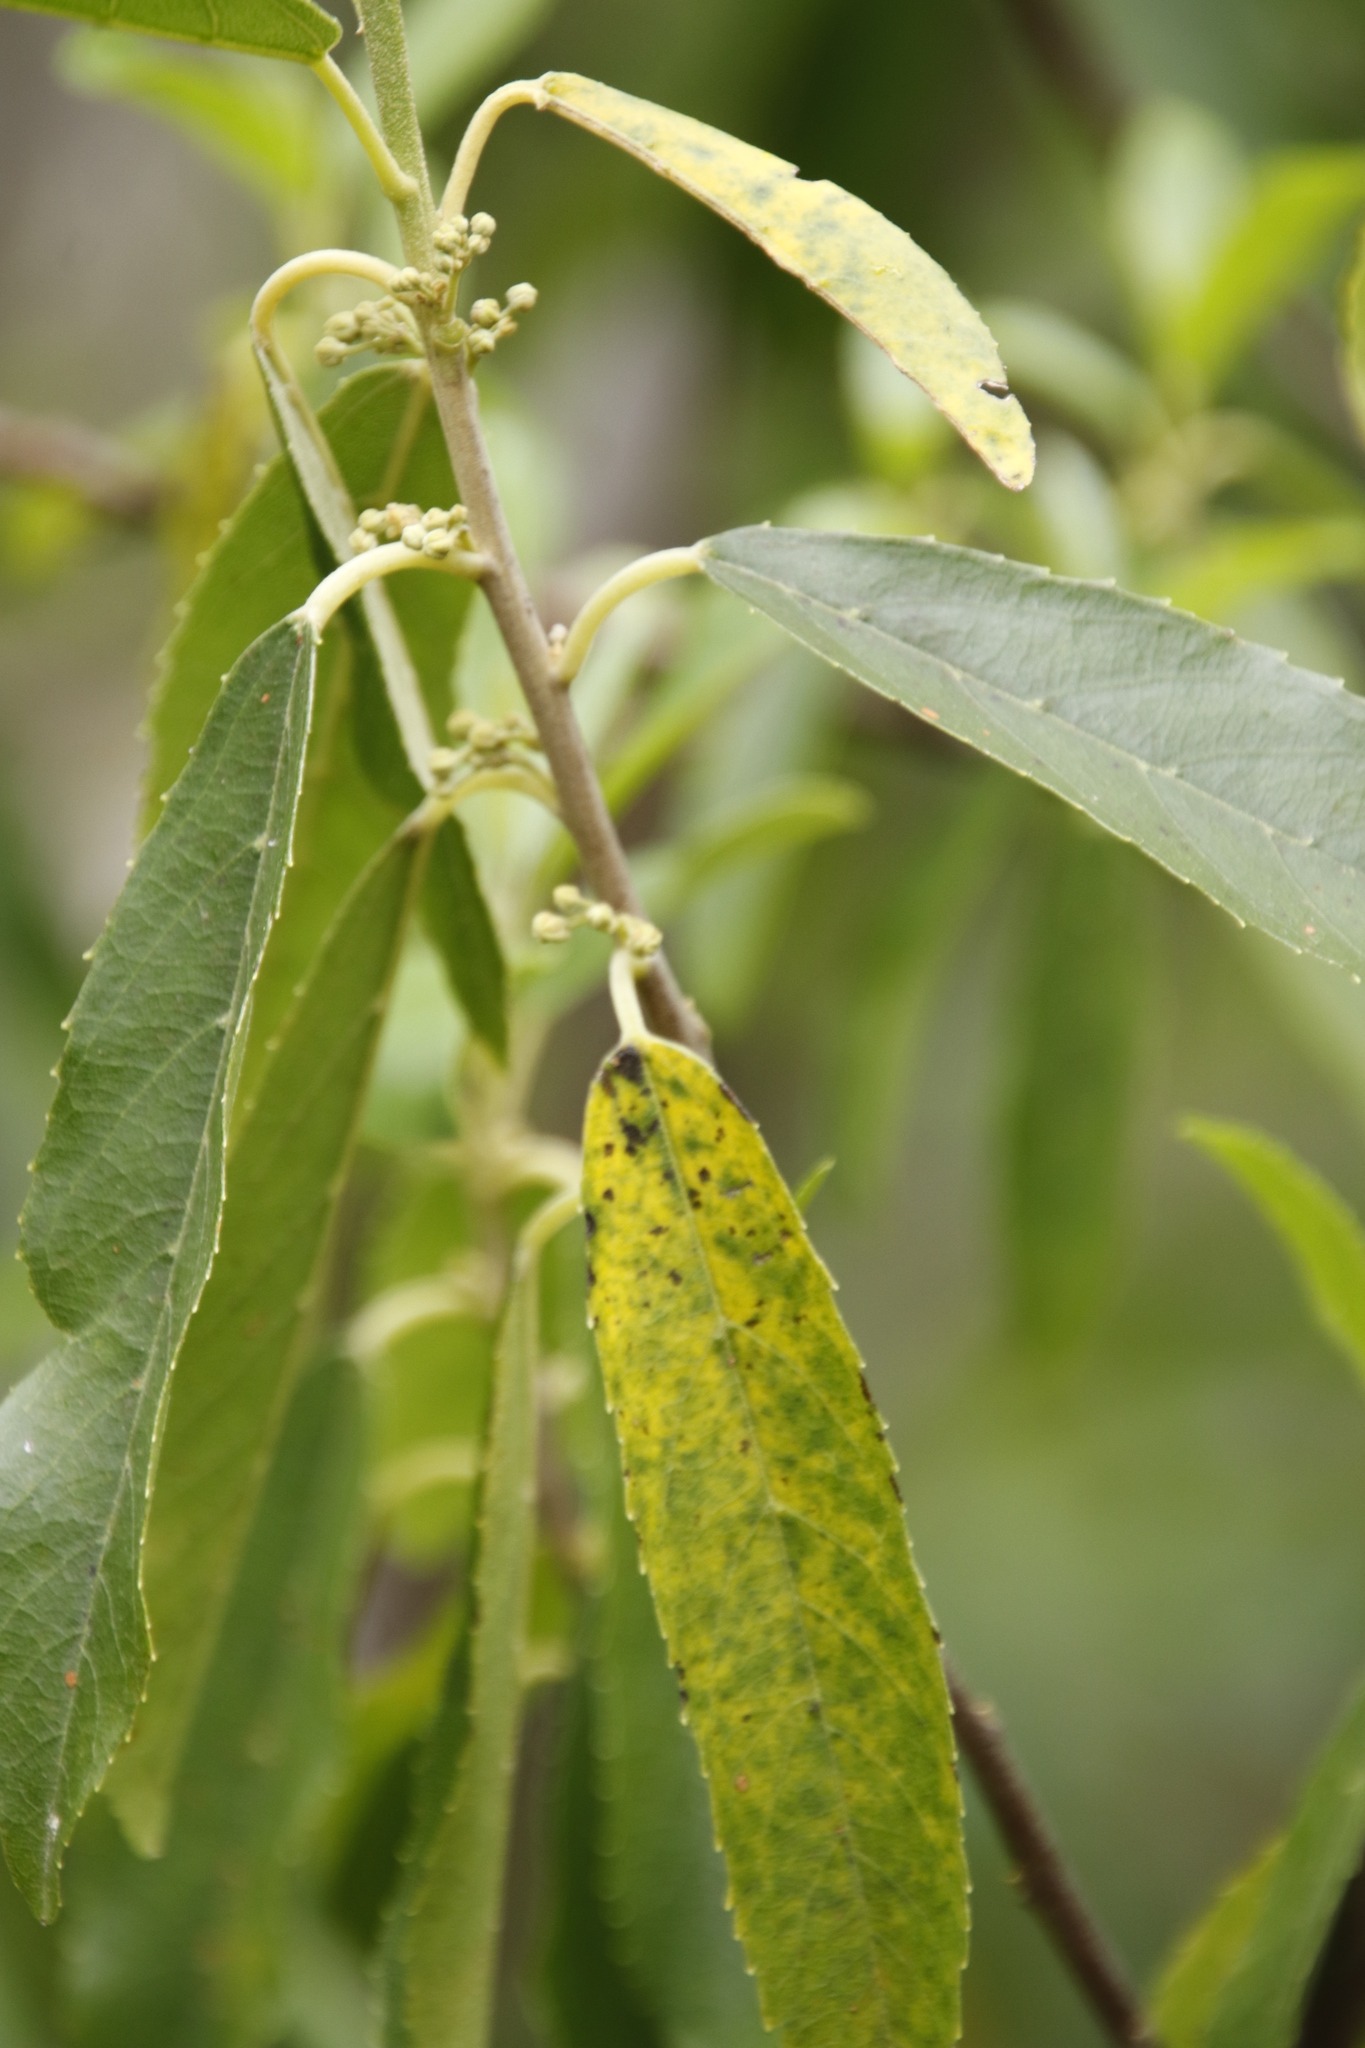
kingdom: Plantae
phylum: Tracheophyta
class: Magnoliopsida
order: Malpighiales
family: Achariaceae
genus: Kiggelaria
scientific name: Kiggelaria africana
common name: Wild peach
